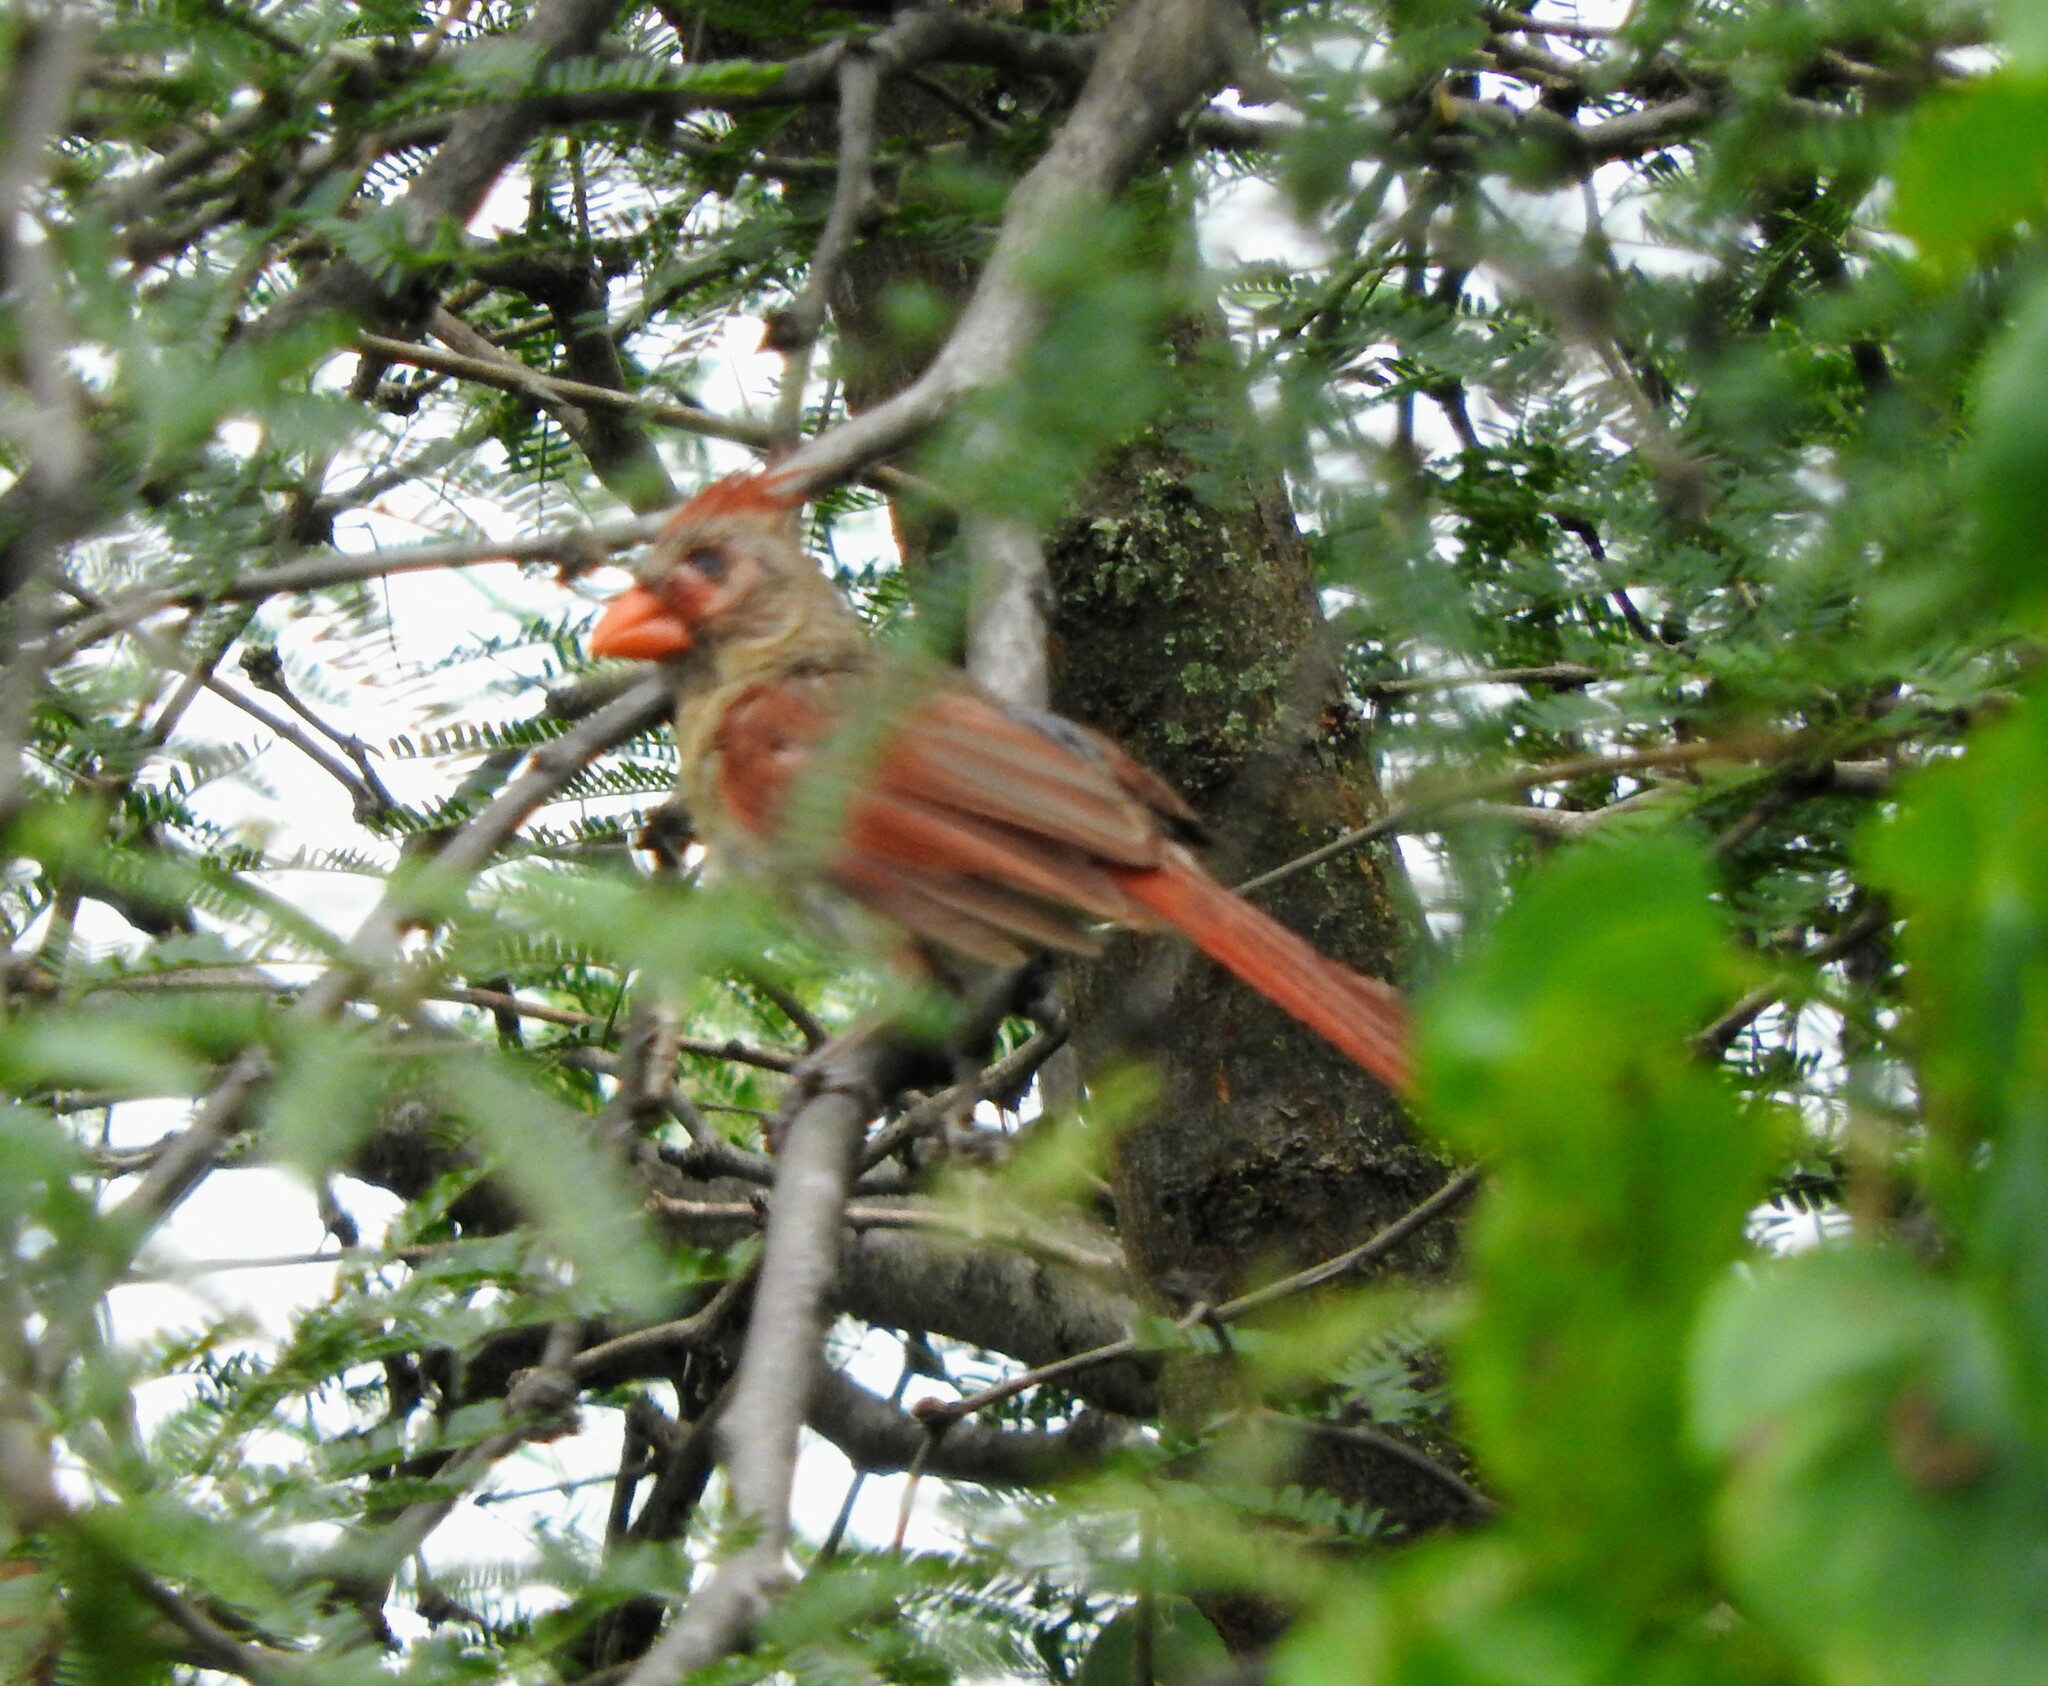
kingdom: Animalia
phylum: Chordata
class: Aves
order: Passeriformes
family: Cardinalidae
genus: Cardinalis
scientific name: Cardinalis cardinalis
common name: Northern cardinal
